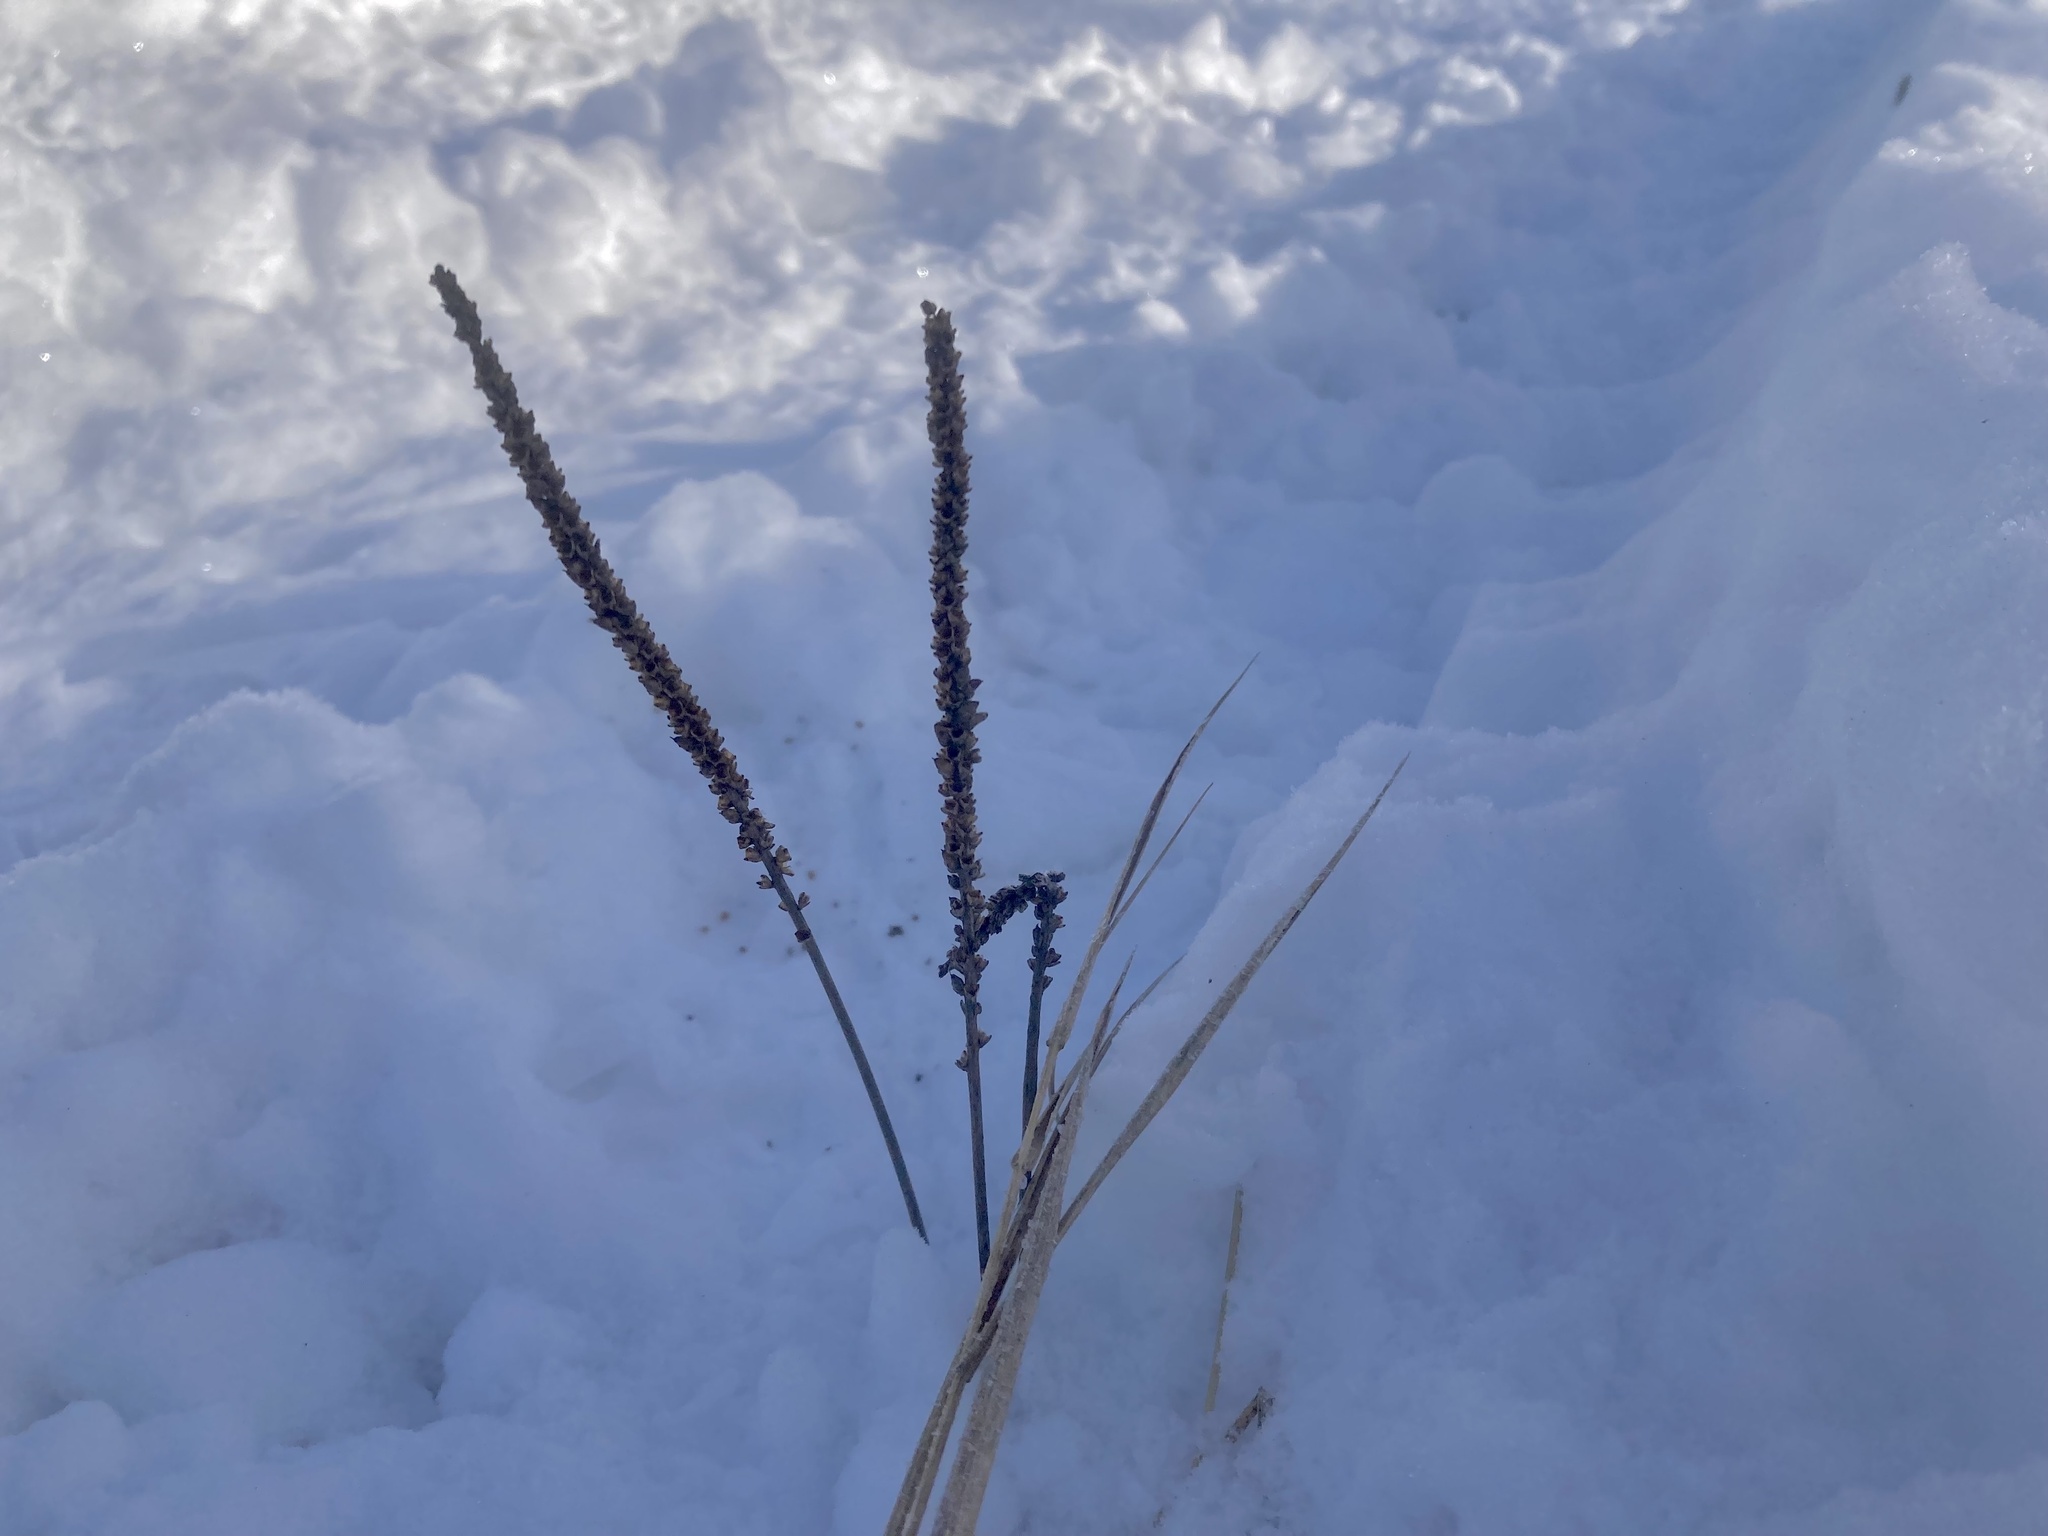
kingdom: Plantae
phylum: Tracheophyta
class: Magnoliopsida
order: Lamiales
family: Plantaginaceae
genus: Plantago
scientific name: Plantago major
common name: Common plantain
